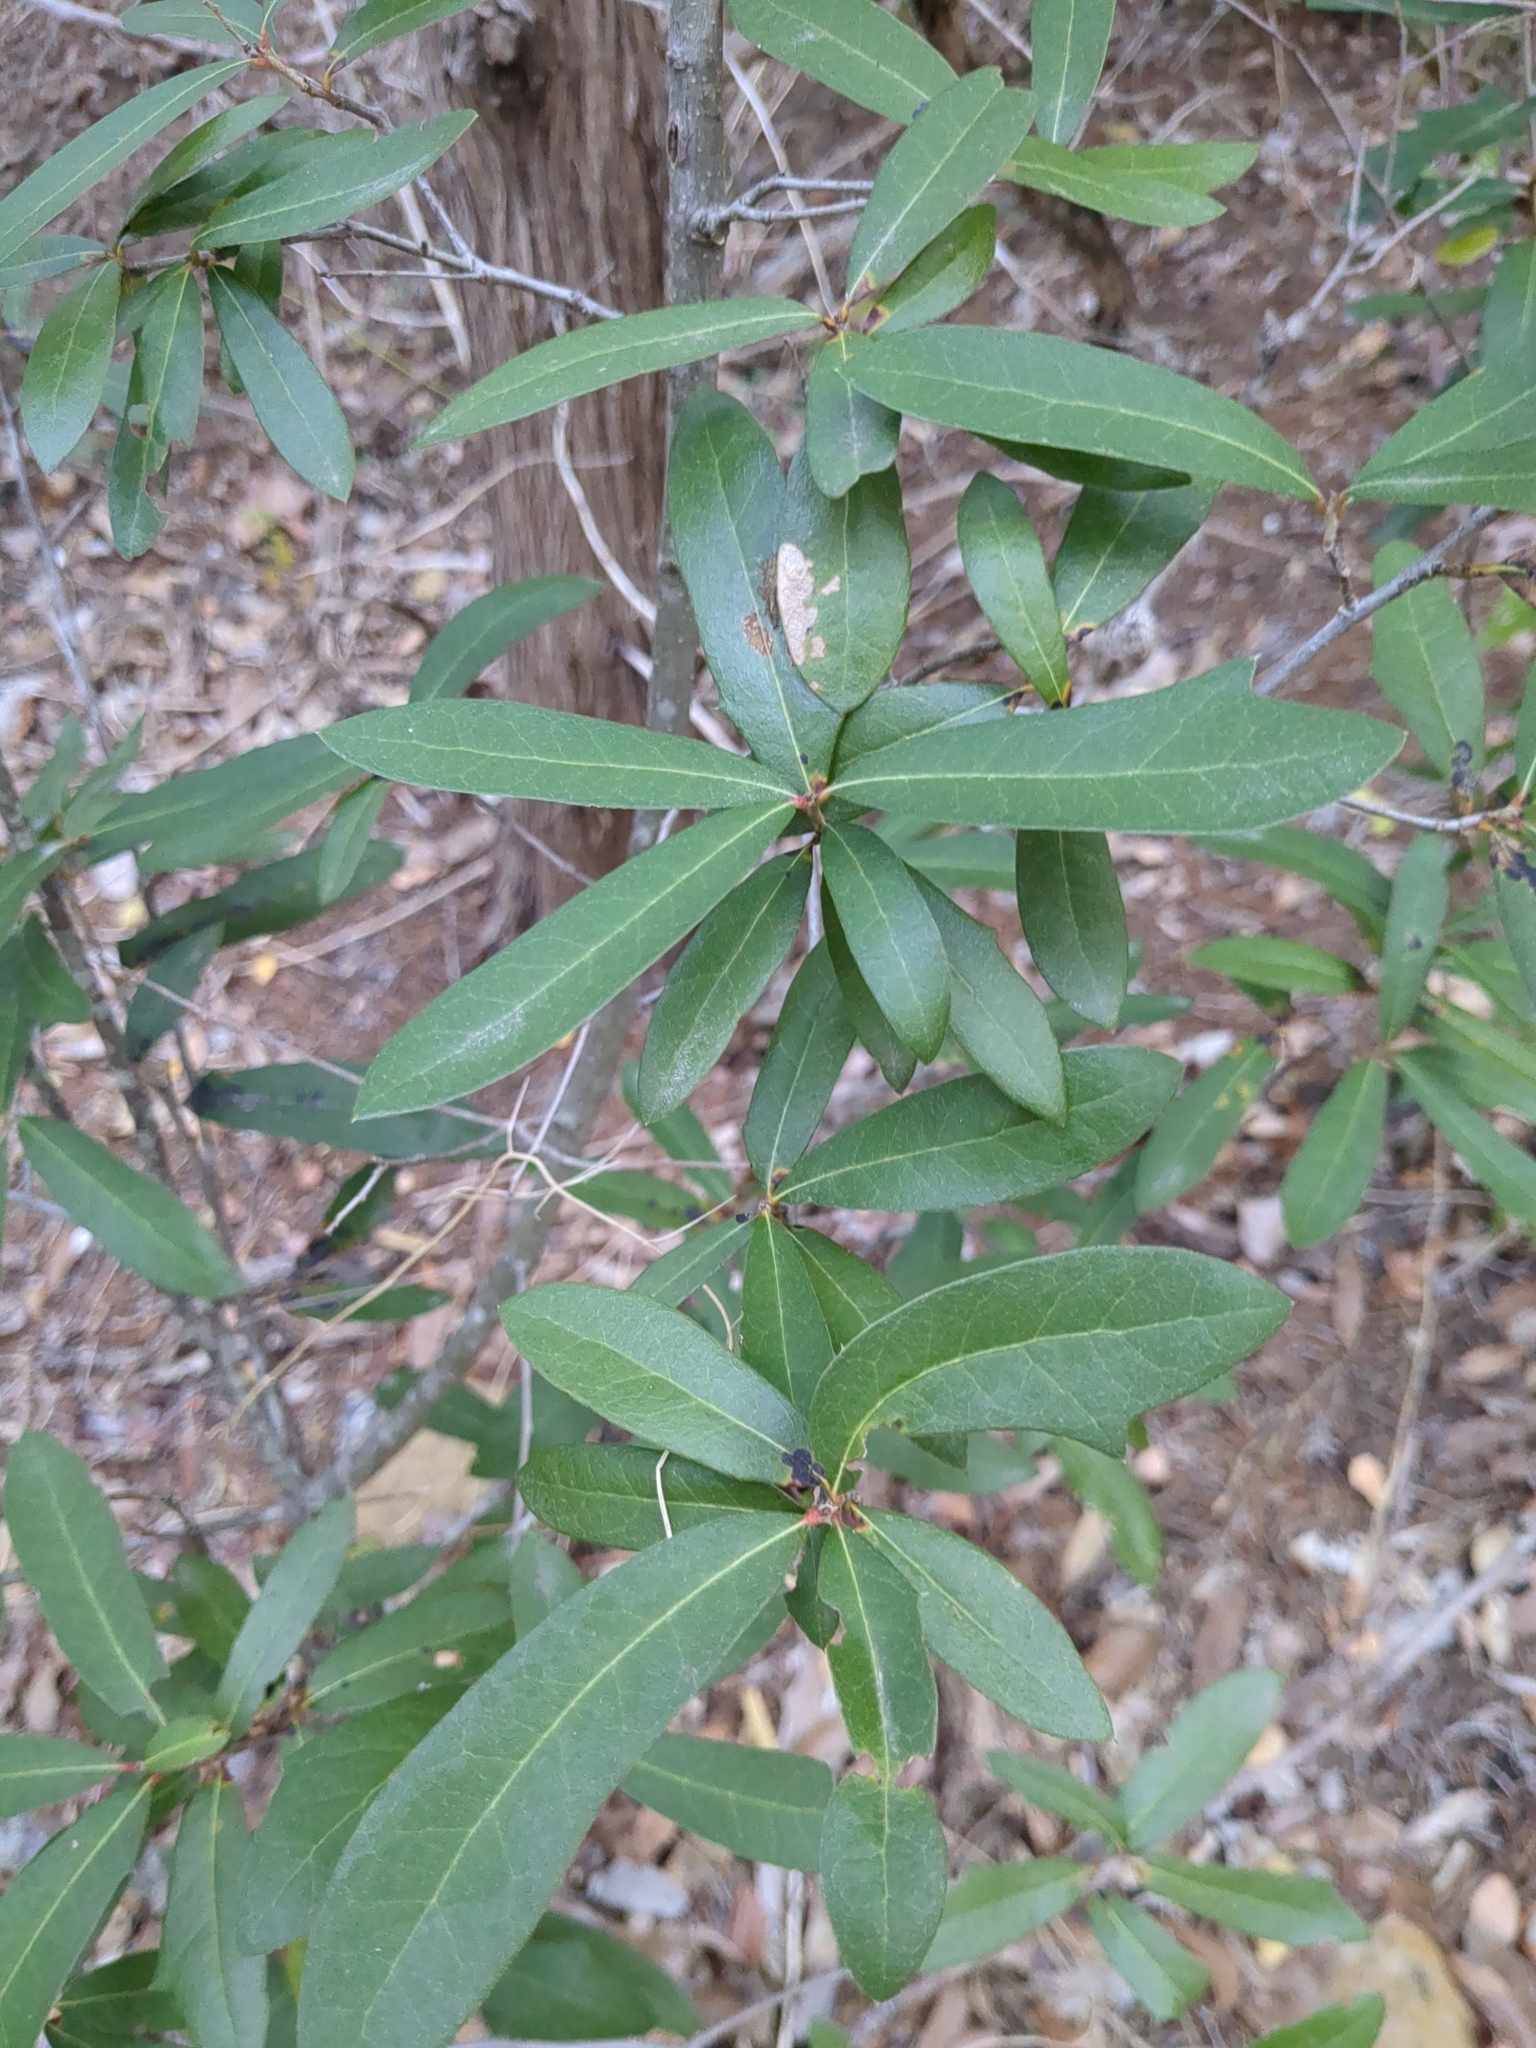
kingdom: Plantae
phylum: Tracheophyta
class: Magnoliopsida
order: Fagales
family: Fagaceae
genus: Quercus
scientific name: Quercus fusiformis
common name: Texas live oak
